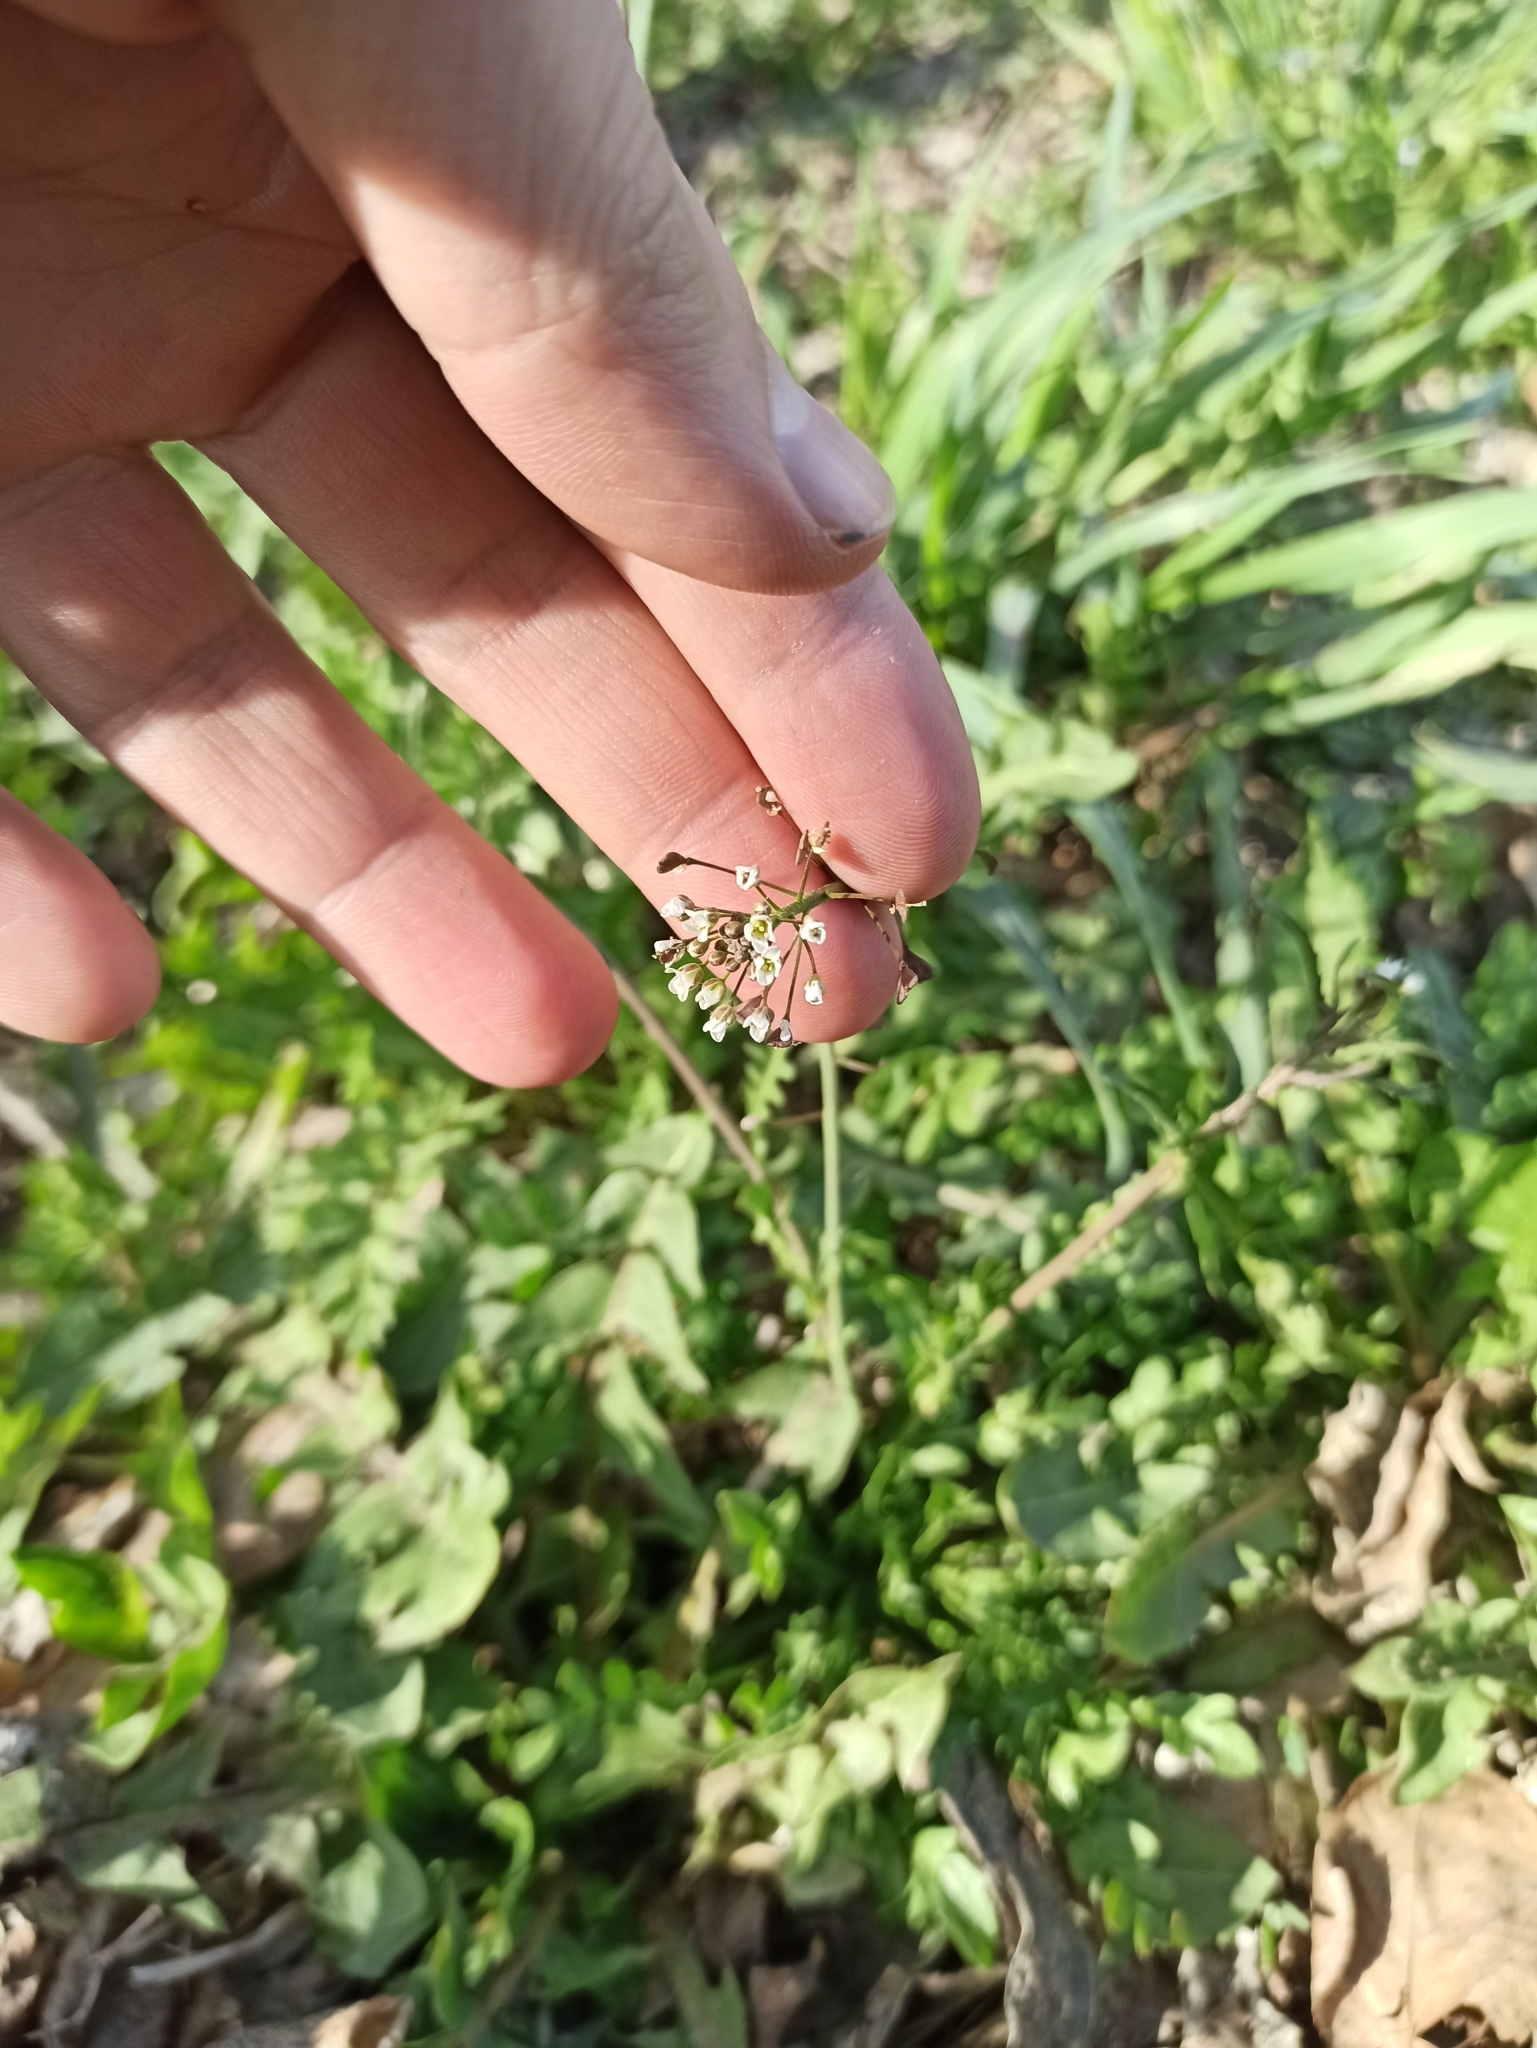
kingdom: Plantae
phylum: Tracheophyta
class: Magnoliopsida
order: Brassicales
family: Brassicaceae
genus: Capsella
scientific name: Capsella bursa-pastoris
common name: Shepherd's purse
